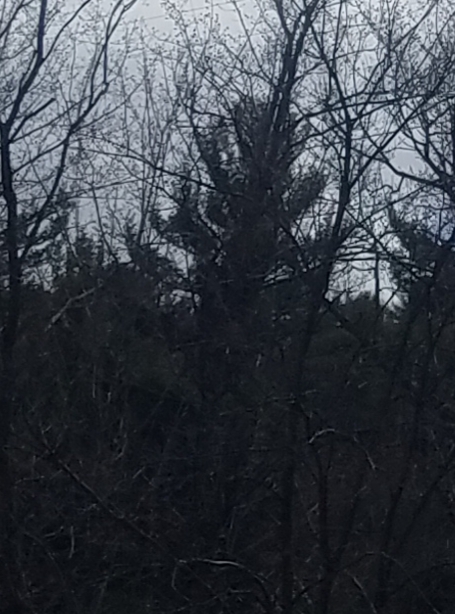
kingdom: Plantae
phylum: Tracheophyta
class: Pinopsida
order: Pinales
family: Pinaceae
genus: Pinus
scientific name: Pinus strobus
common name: Weymouth pine
